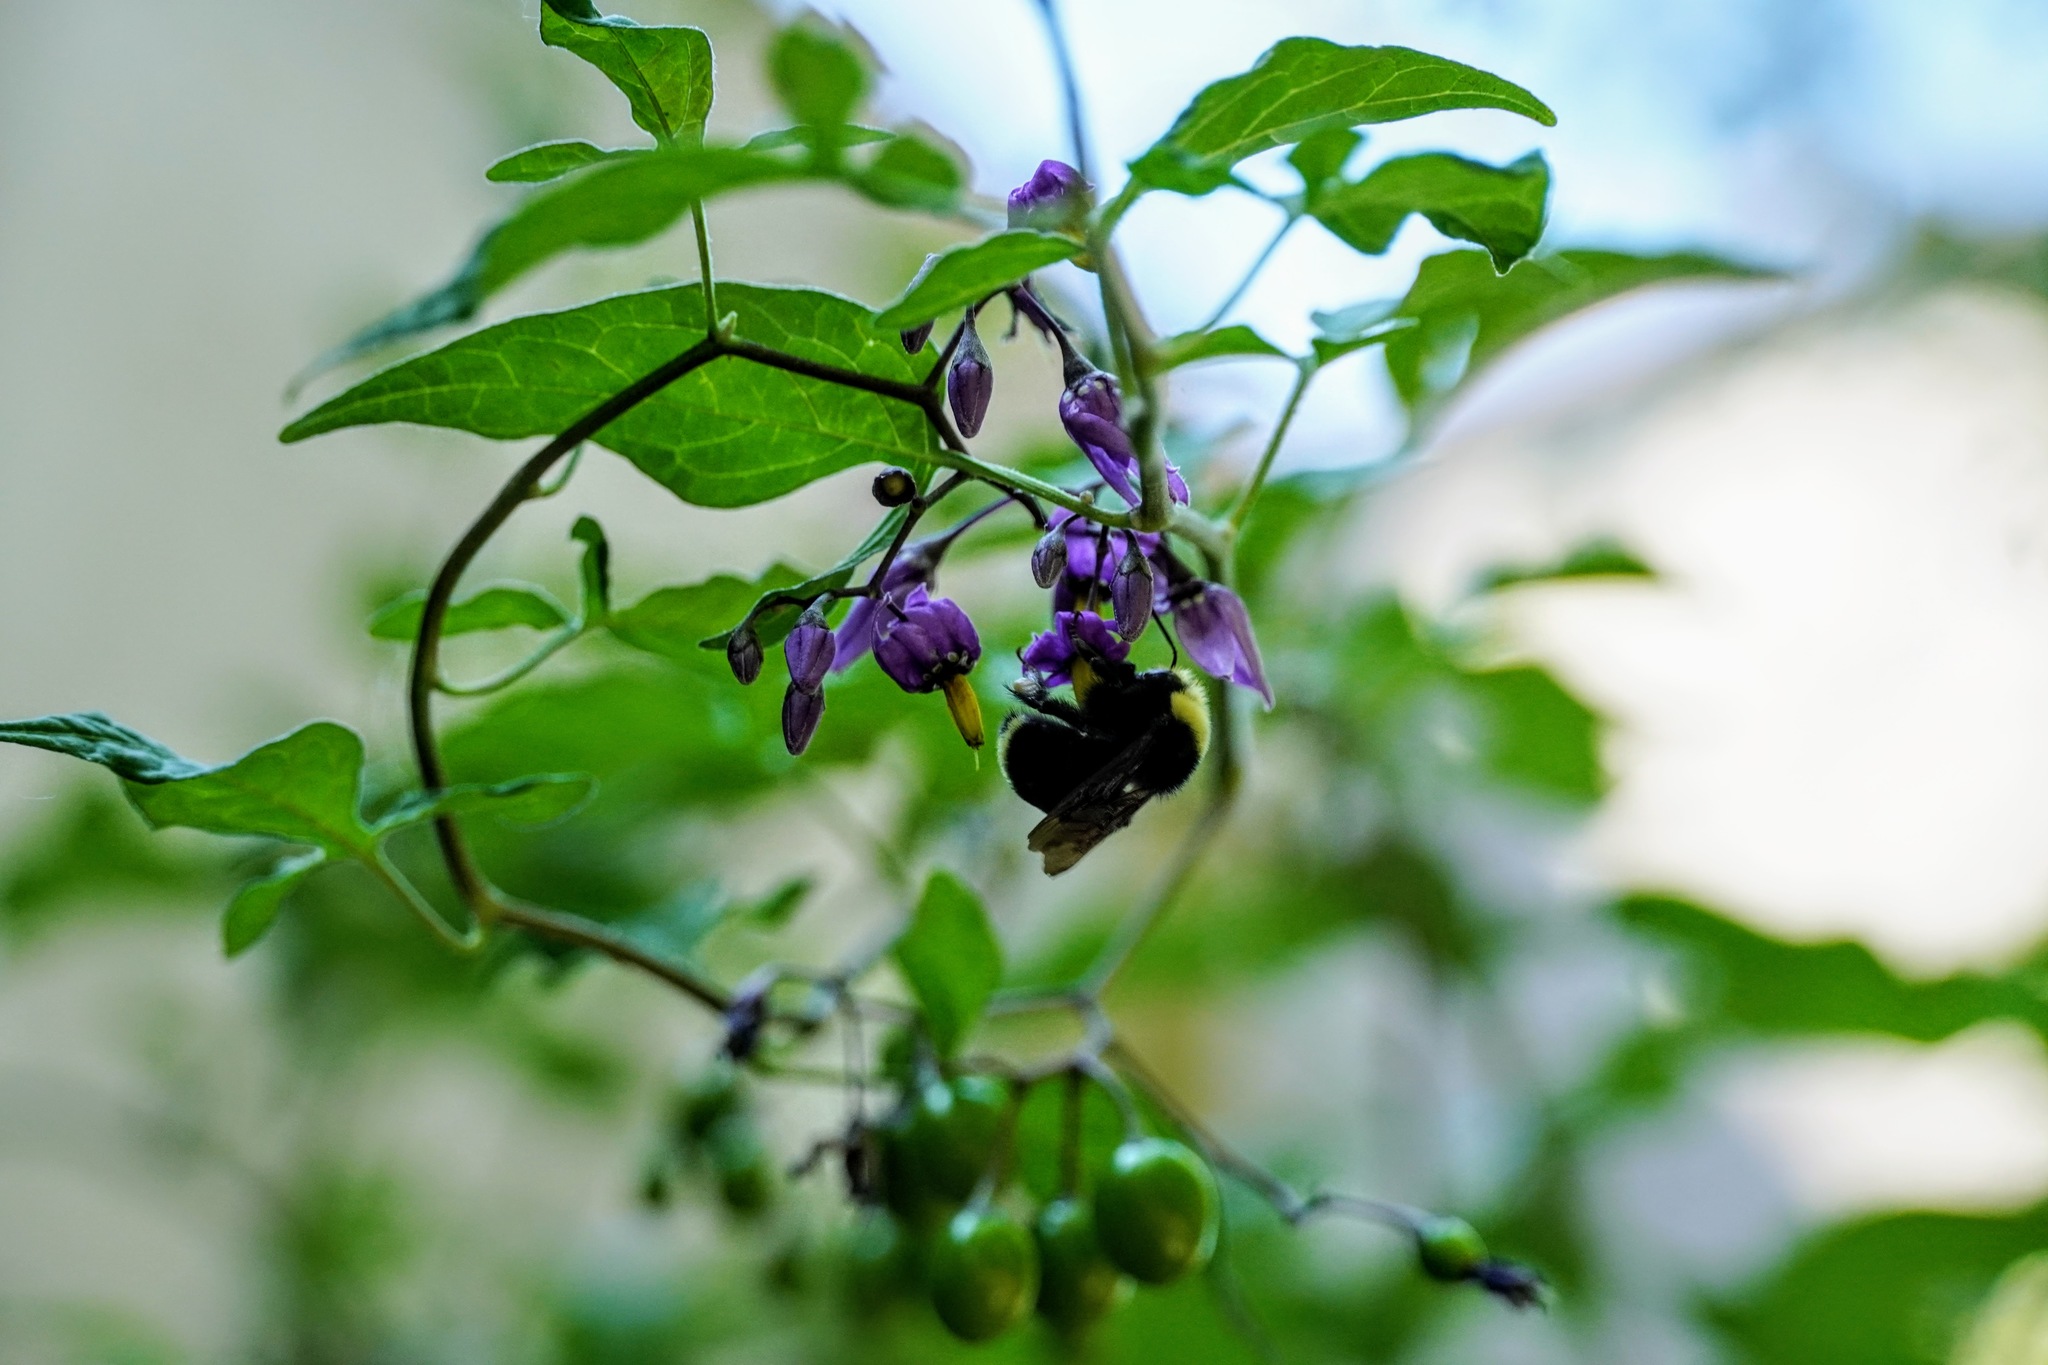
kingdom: Animalia
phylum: Arthropoda
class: Insecta
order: Hymenoptera
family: Apidae
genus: Bombus
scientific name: Bombus vosnesenskii
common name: Vosnesensky bumble bee
